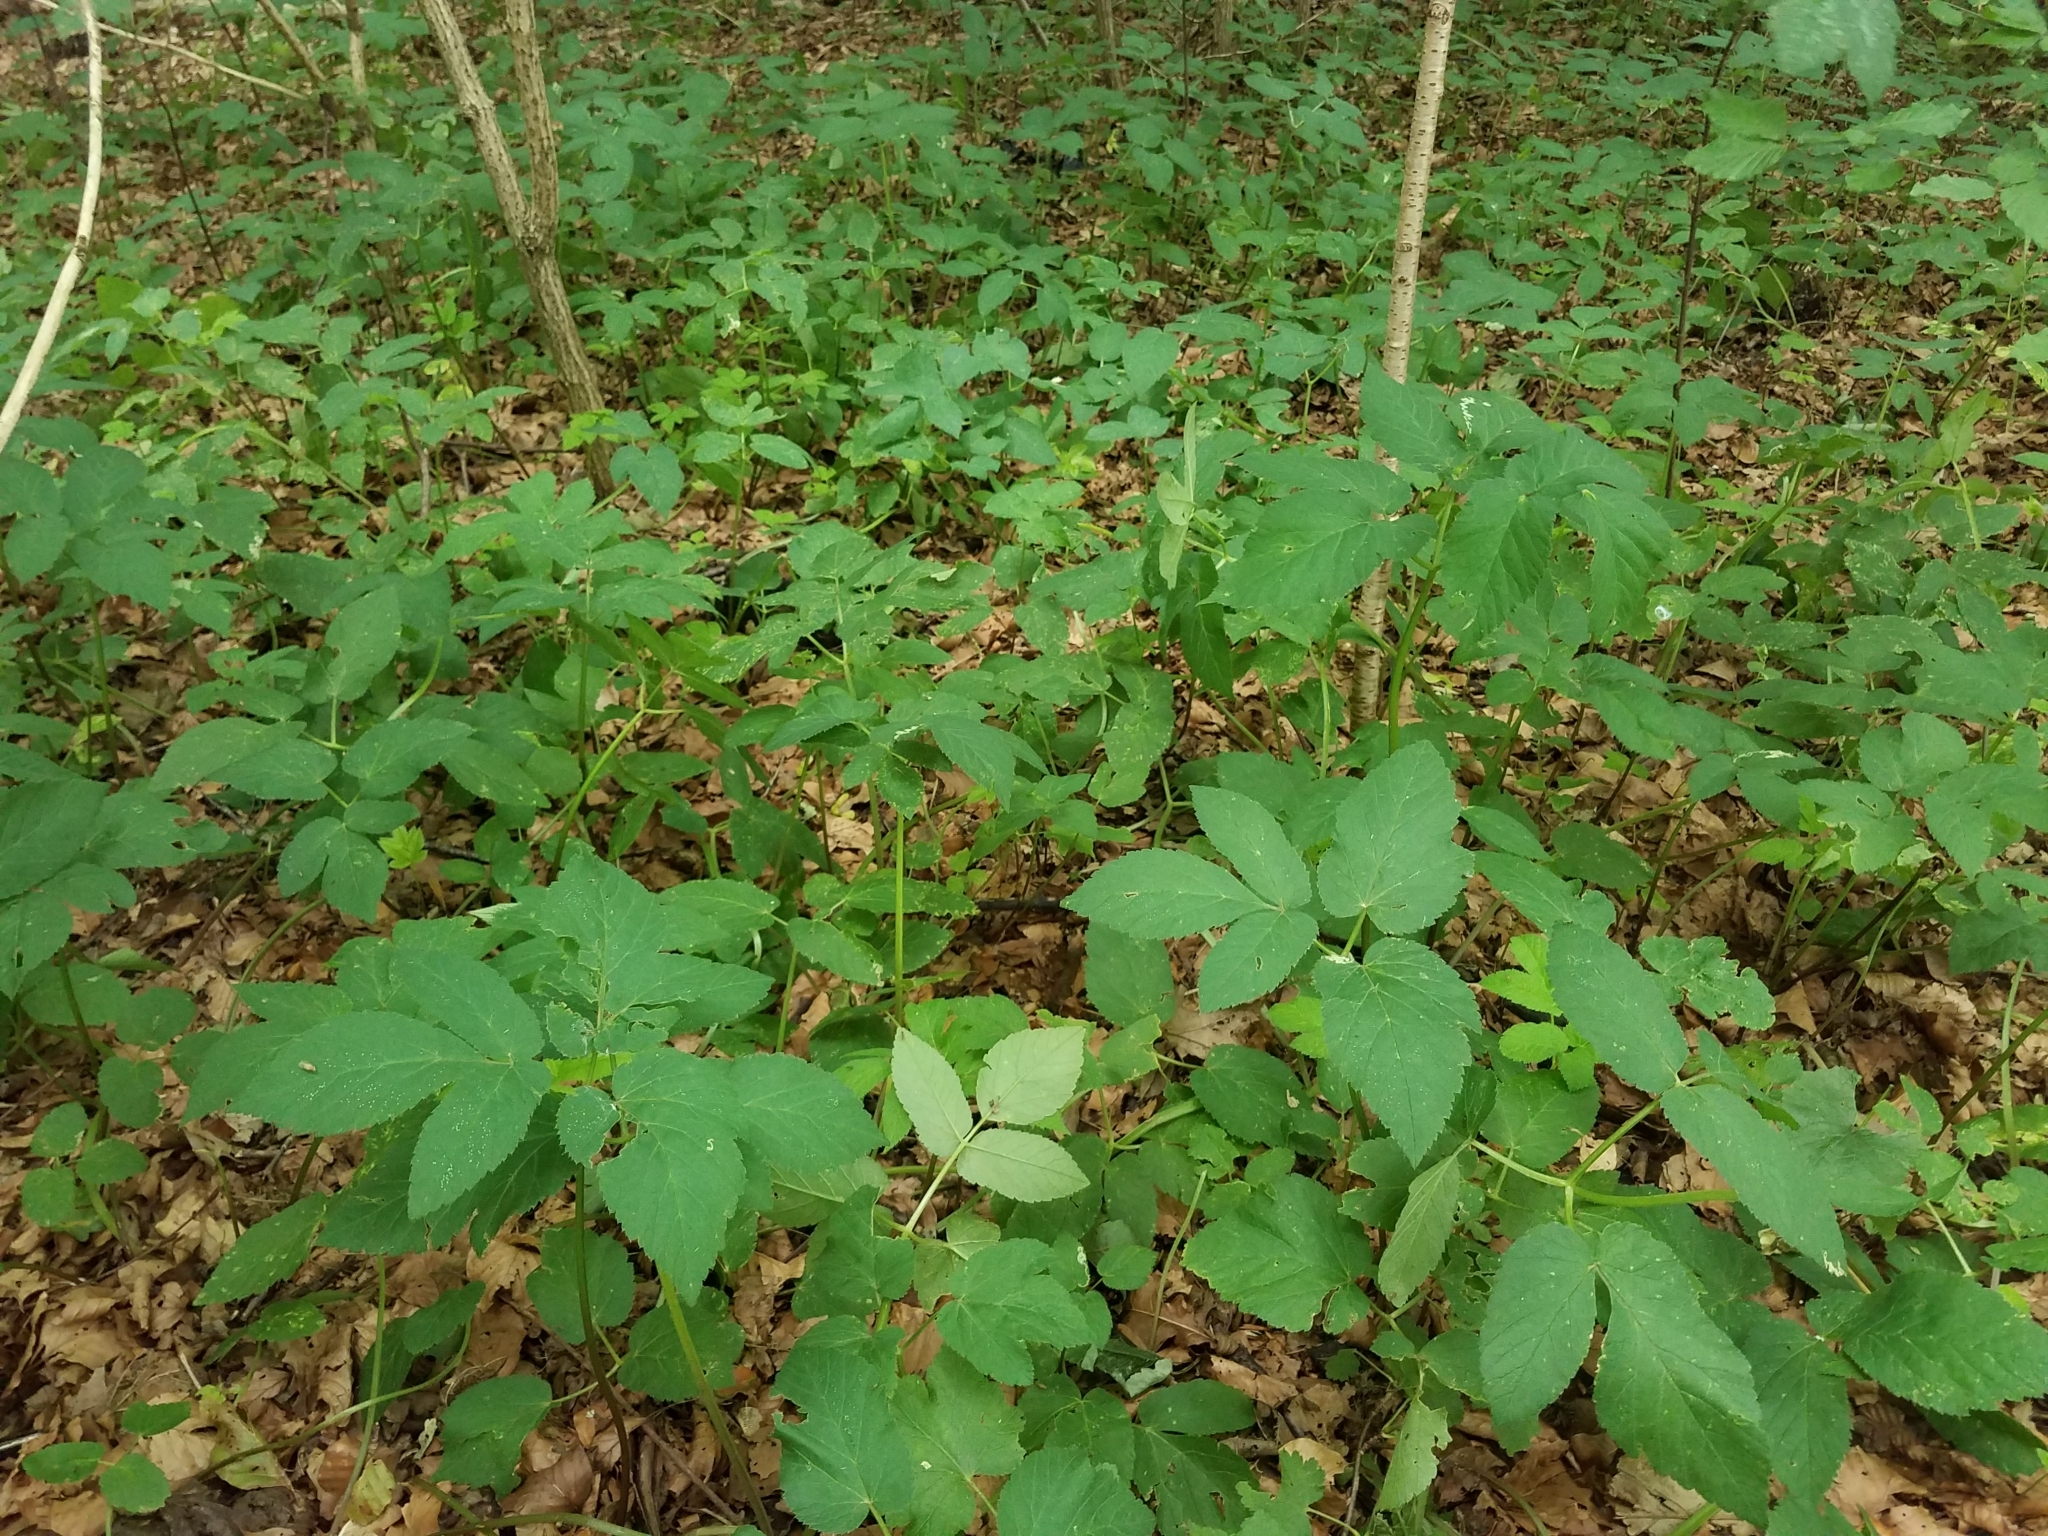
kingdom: Plantae
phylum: Tracheophyta
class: Magnoliopsida
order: Apiales
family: Apiaceae
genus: Aegopodium
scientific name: Aegopodium podagraria
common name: Ground-elder
